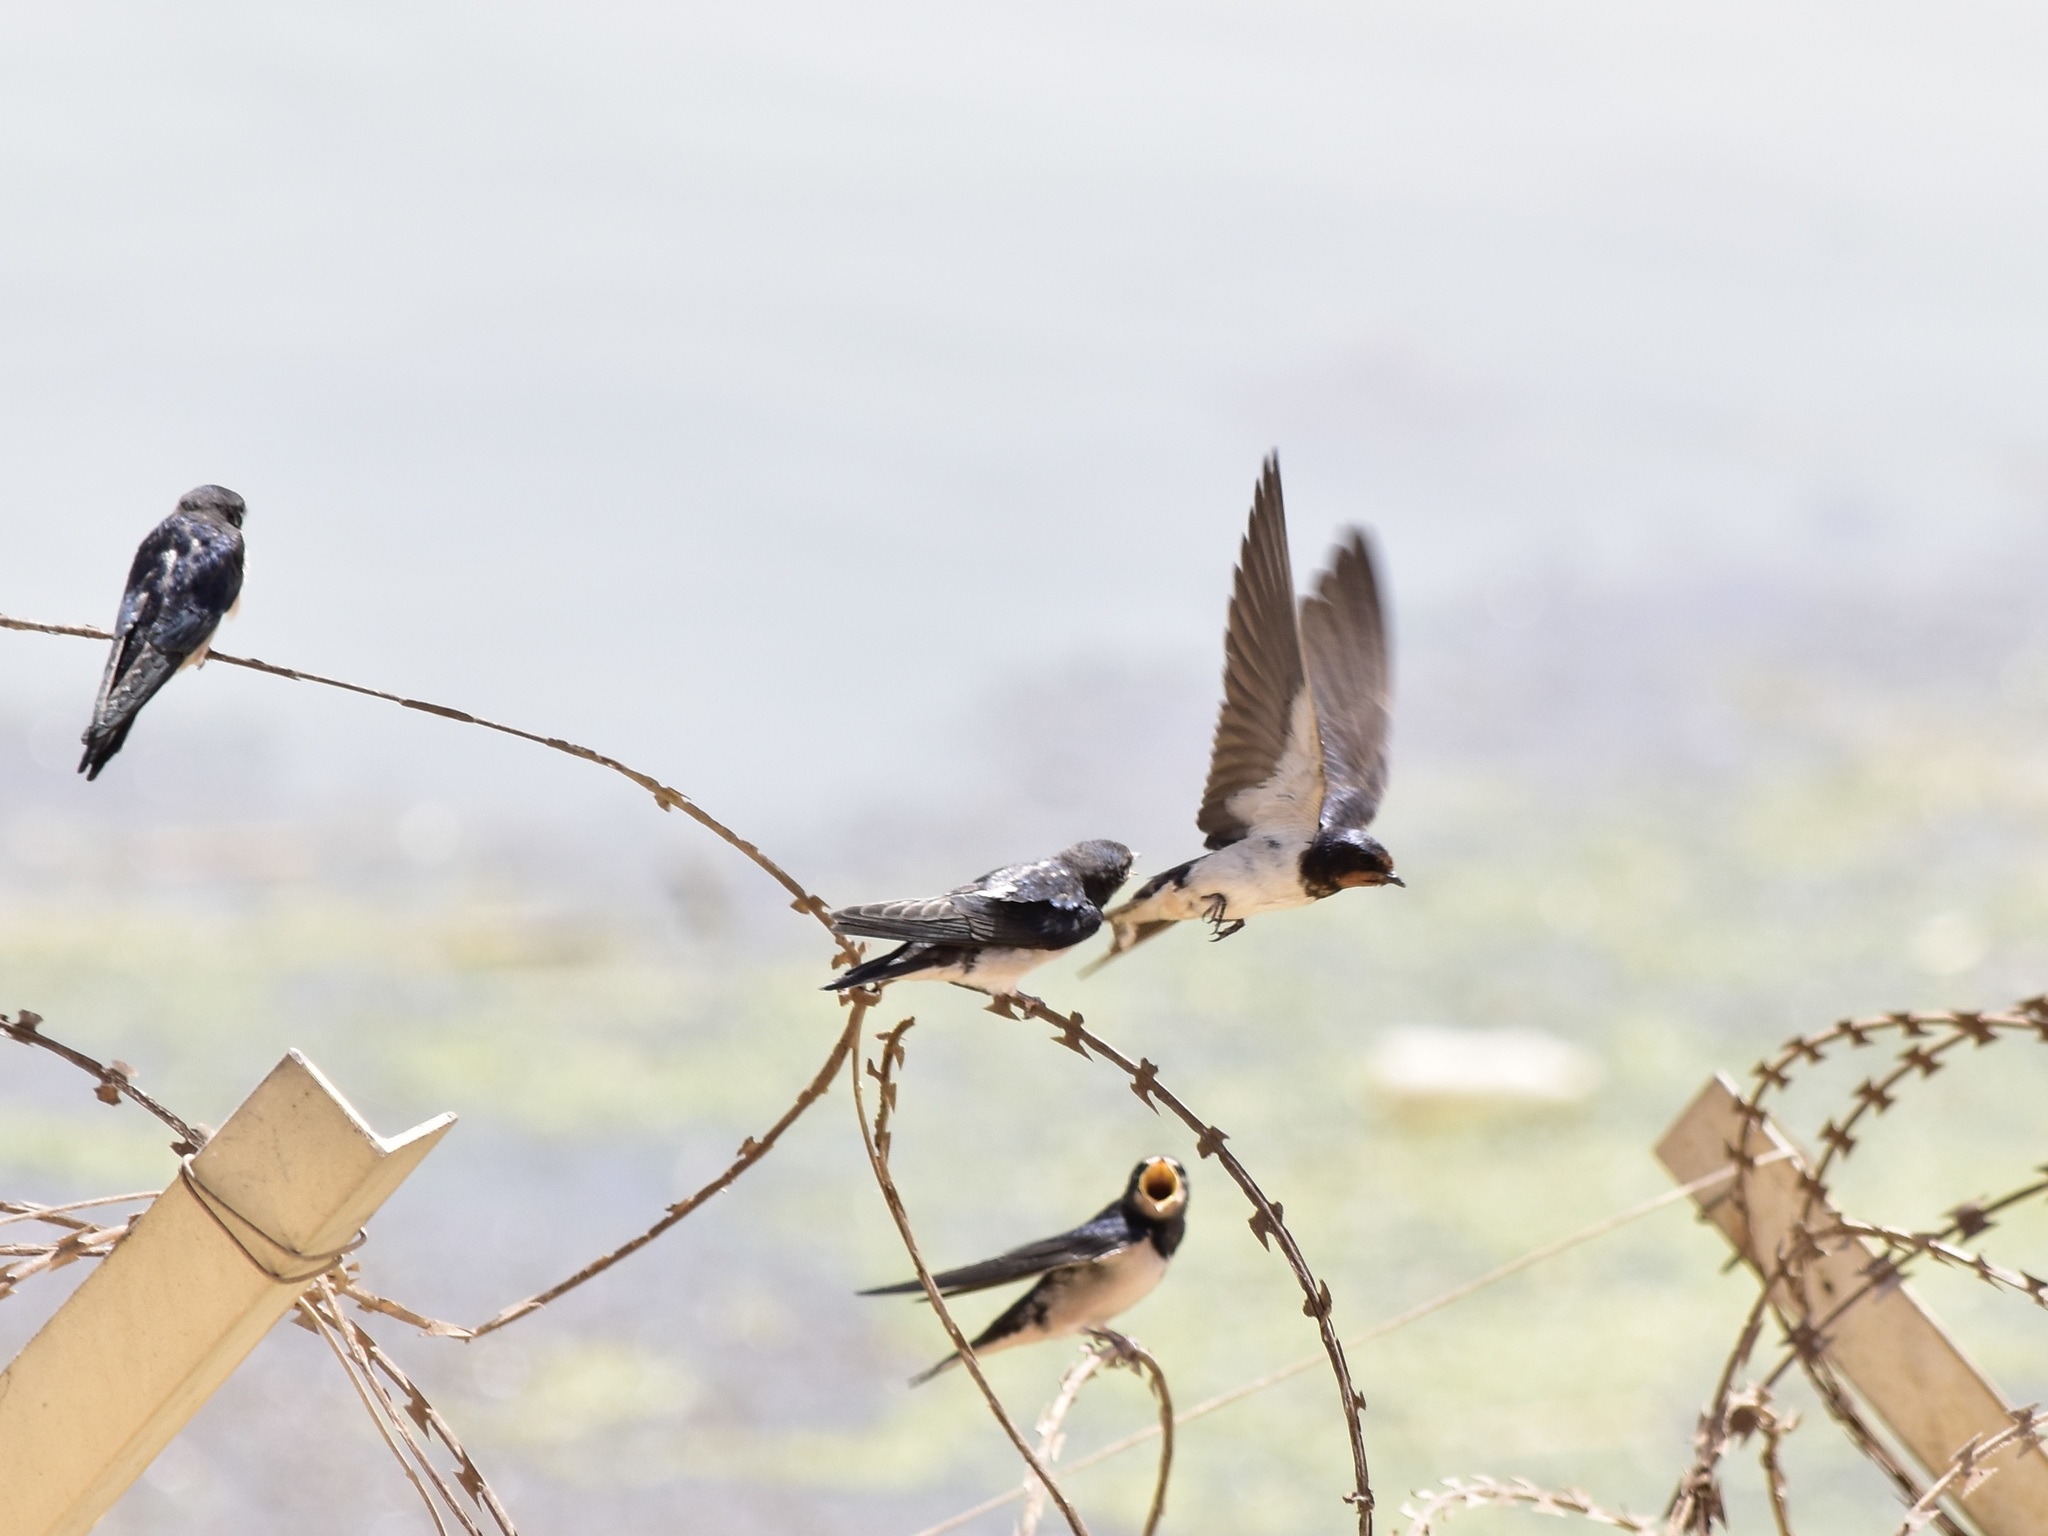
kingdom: Animalia
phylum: Chordata
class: Aves
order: Passeriformes
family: Hirundinidae
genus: Hirundo
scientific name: Hirundo rustica
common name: Barn swallow
